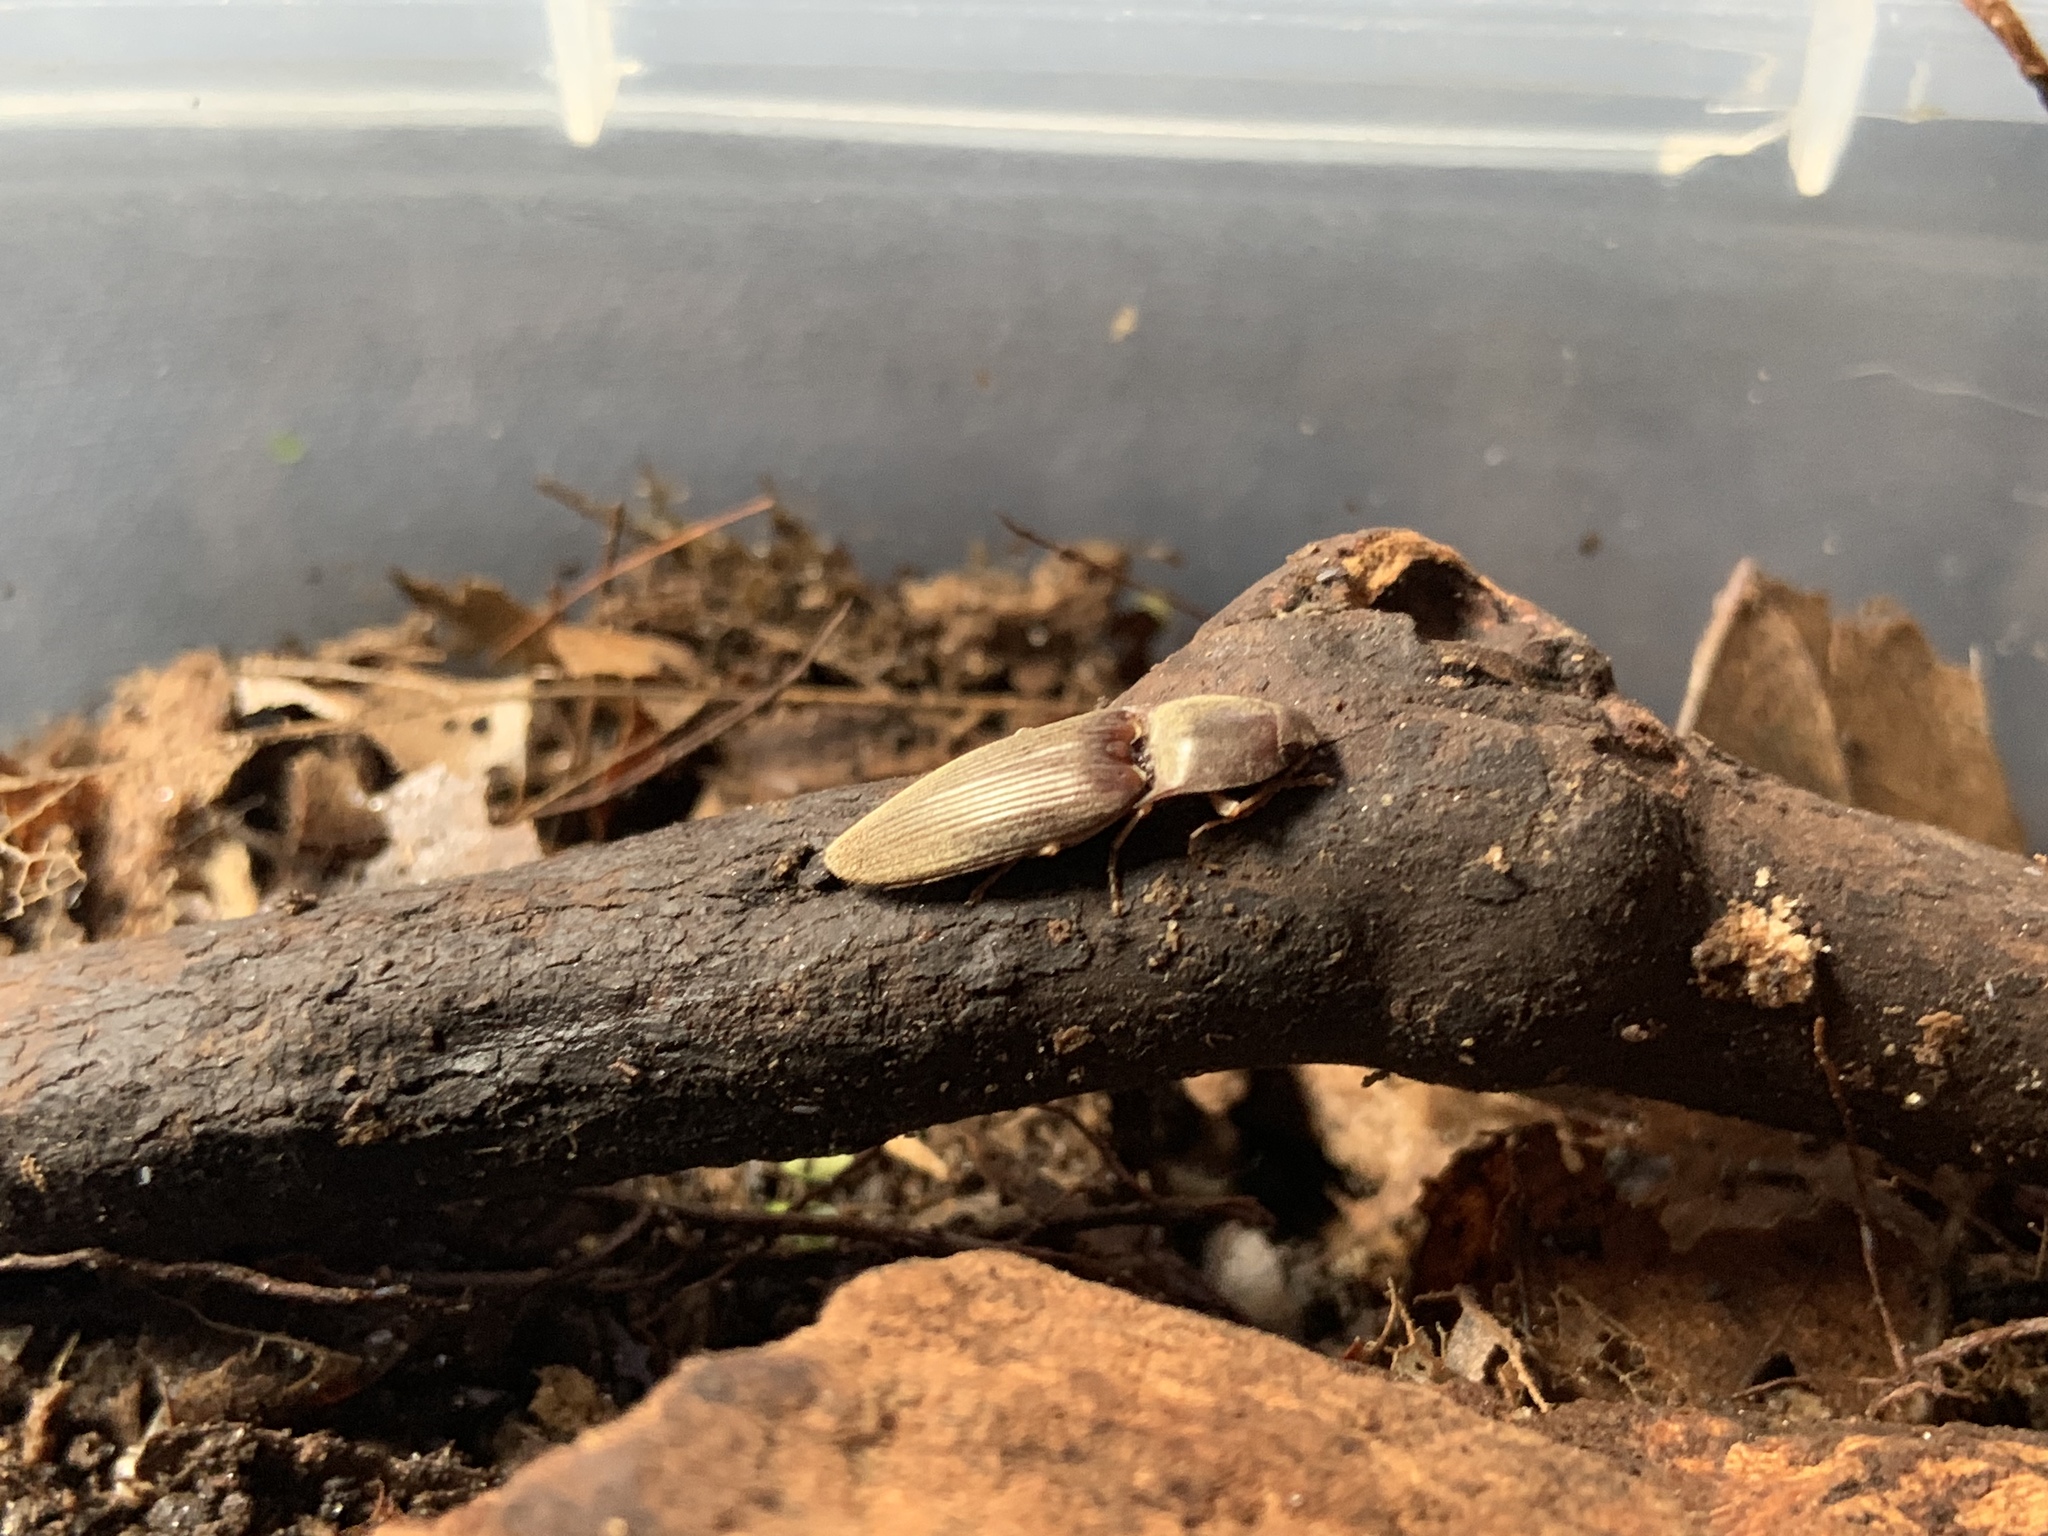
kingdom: Animalia
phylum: Arthropoda
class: Insecta
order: Coleoptera
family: Elateridae
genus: Monocrepidius
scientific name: Monocrepidius lividus
